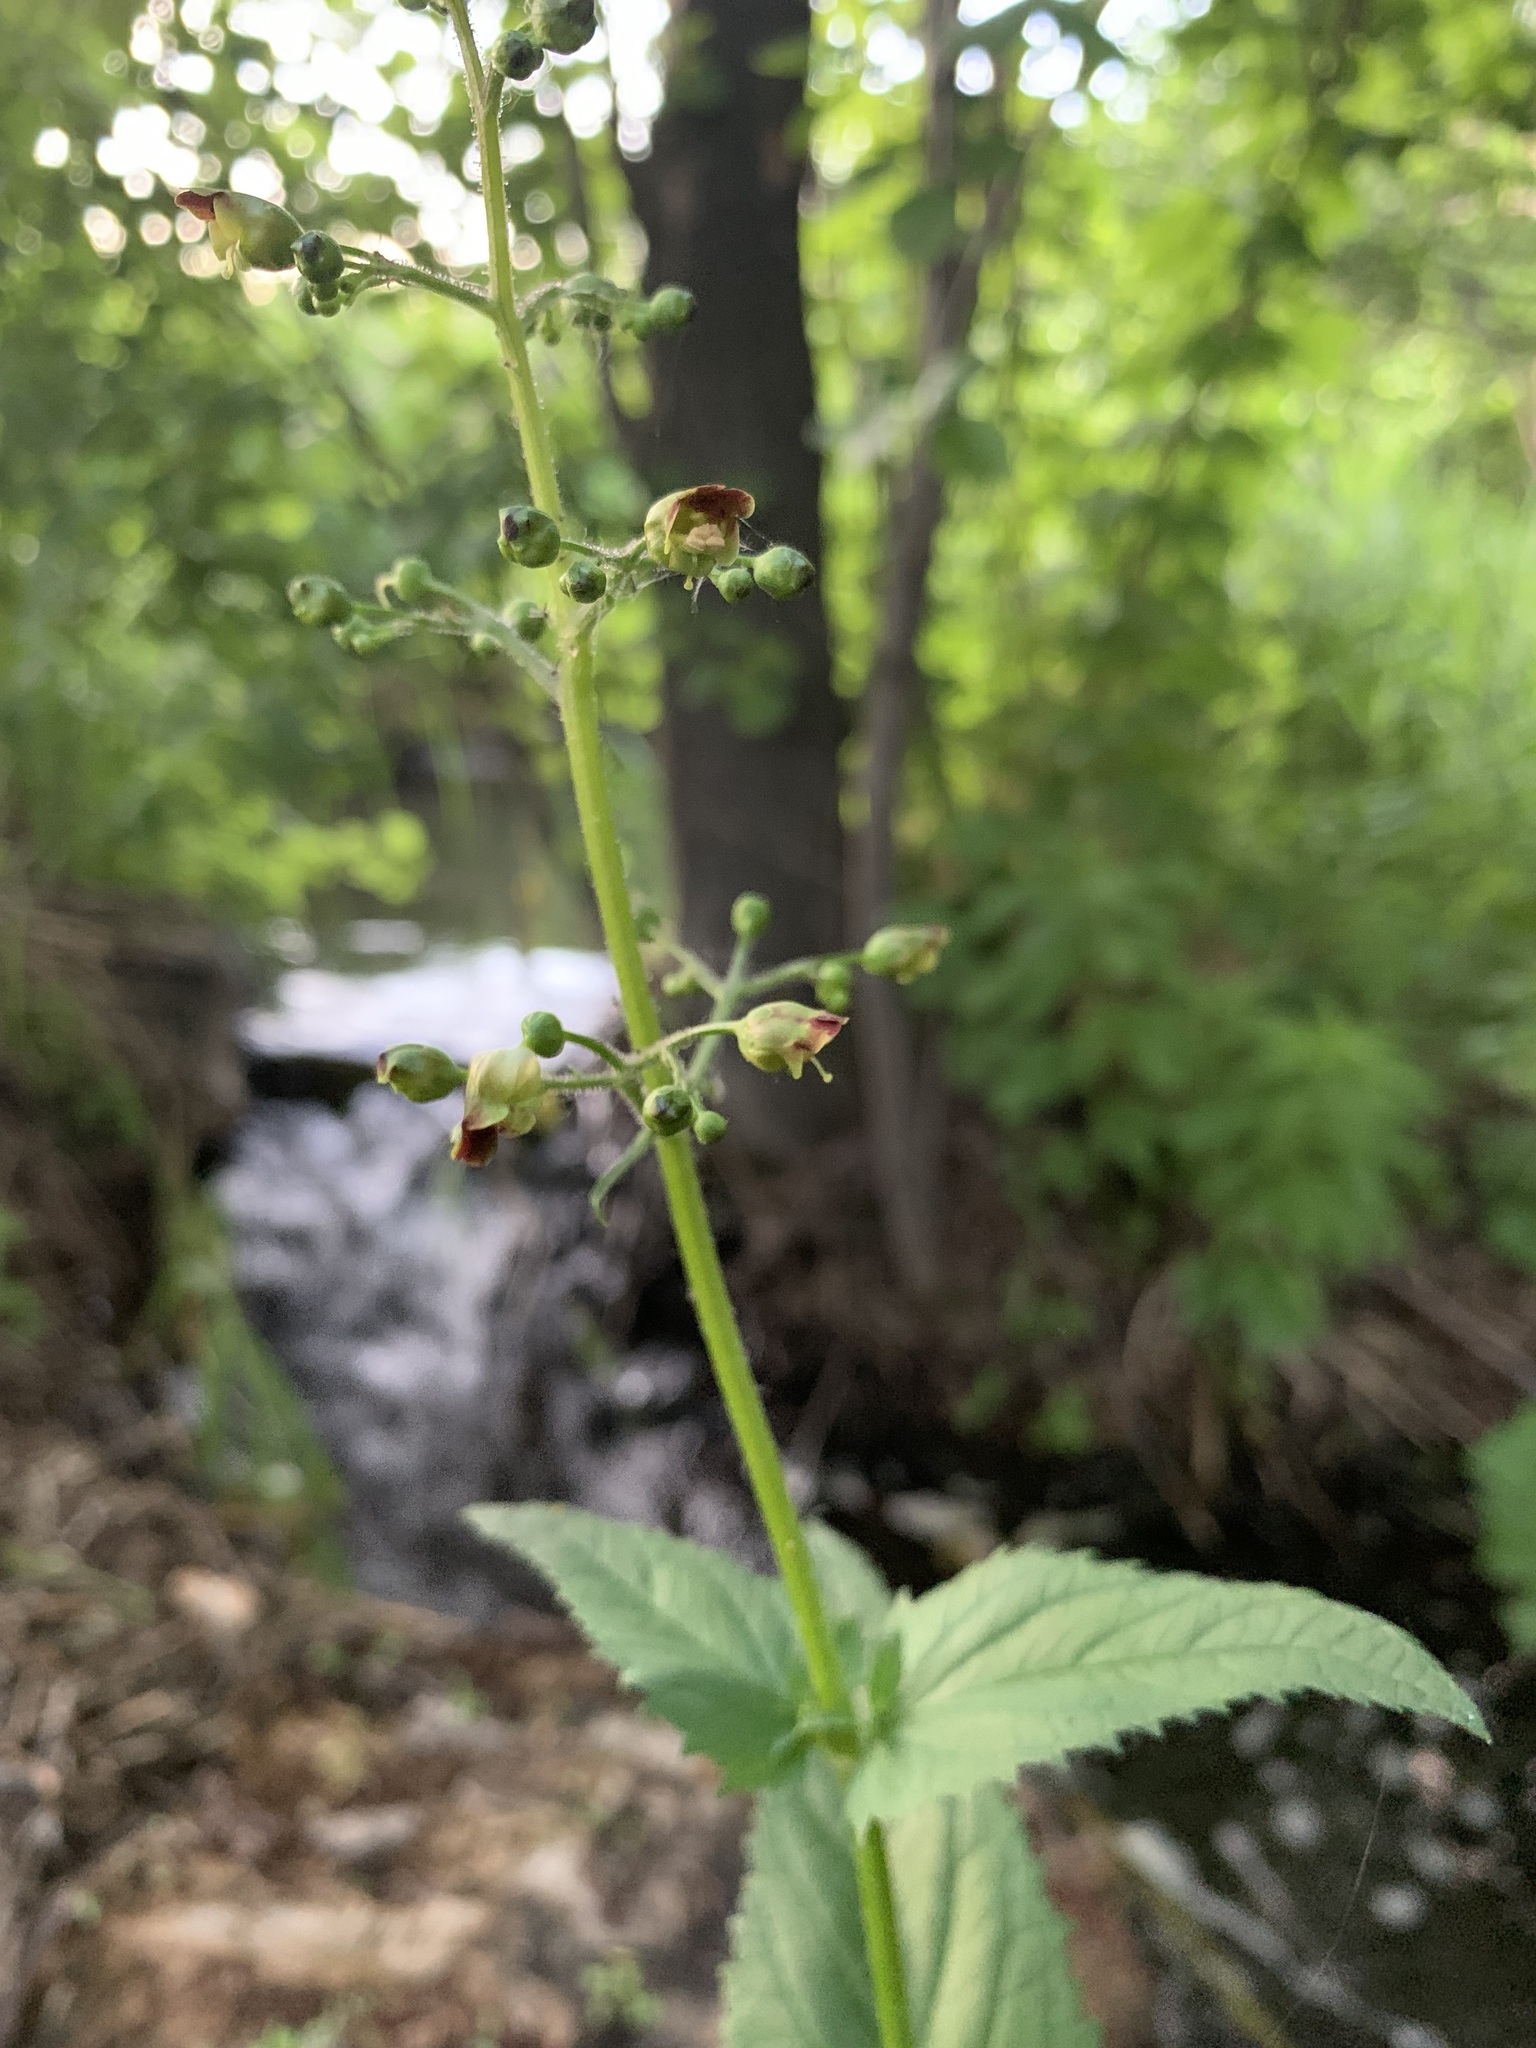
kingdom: Plantae
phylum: Tracheophyta
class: Magnoliopsida
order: Lamiales
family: Scrophulariaceae
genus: Scrophularia
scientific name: Scrophularia nodosa
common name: Common figwort
